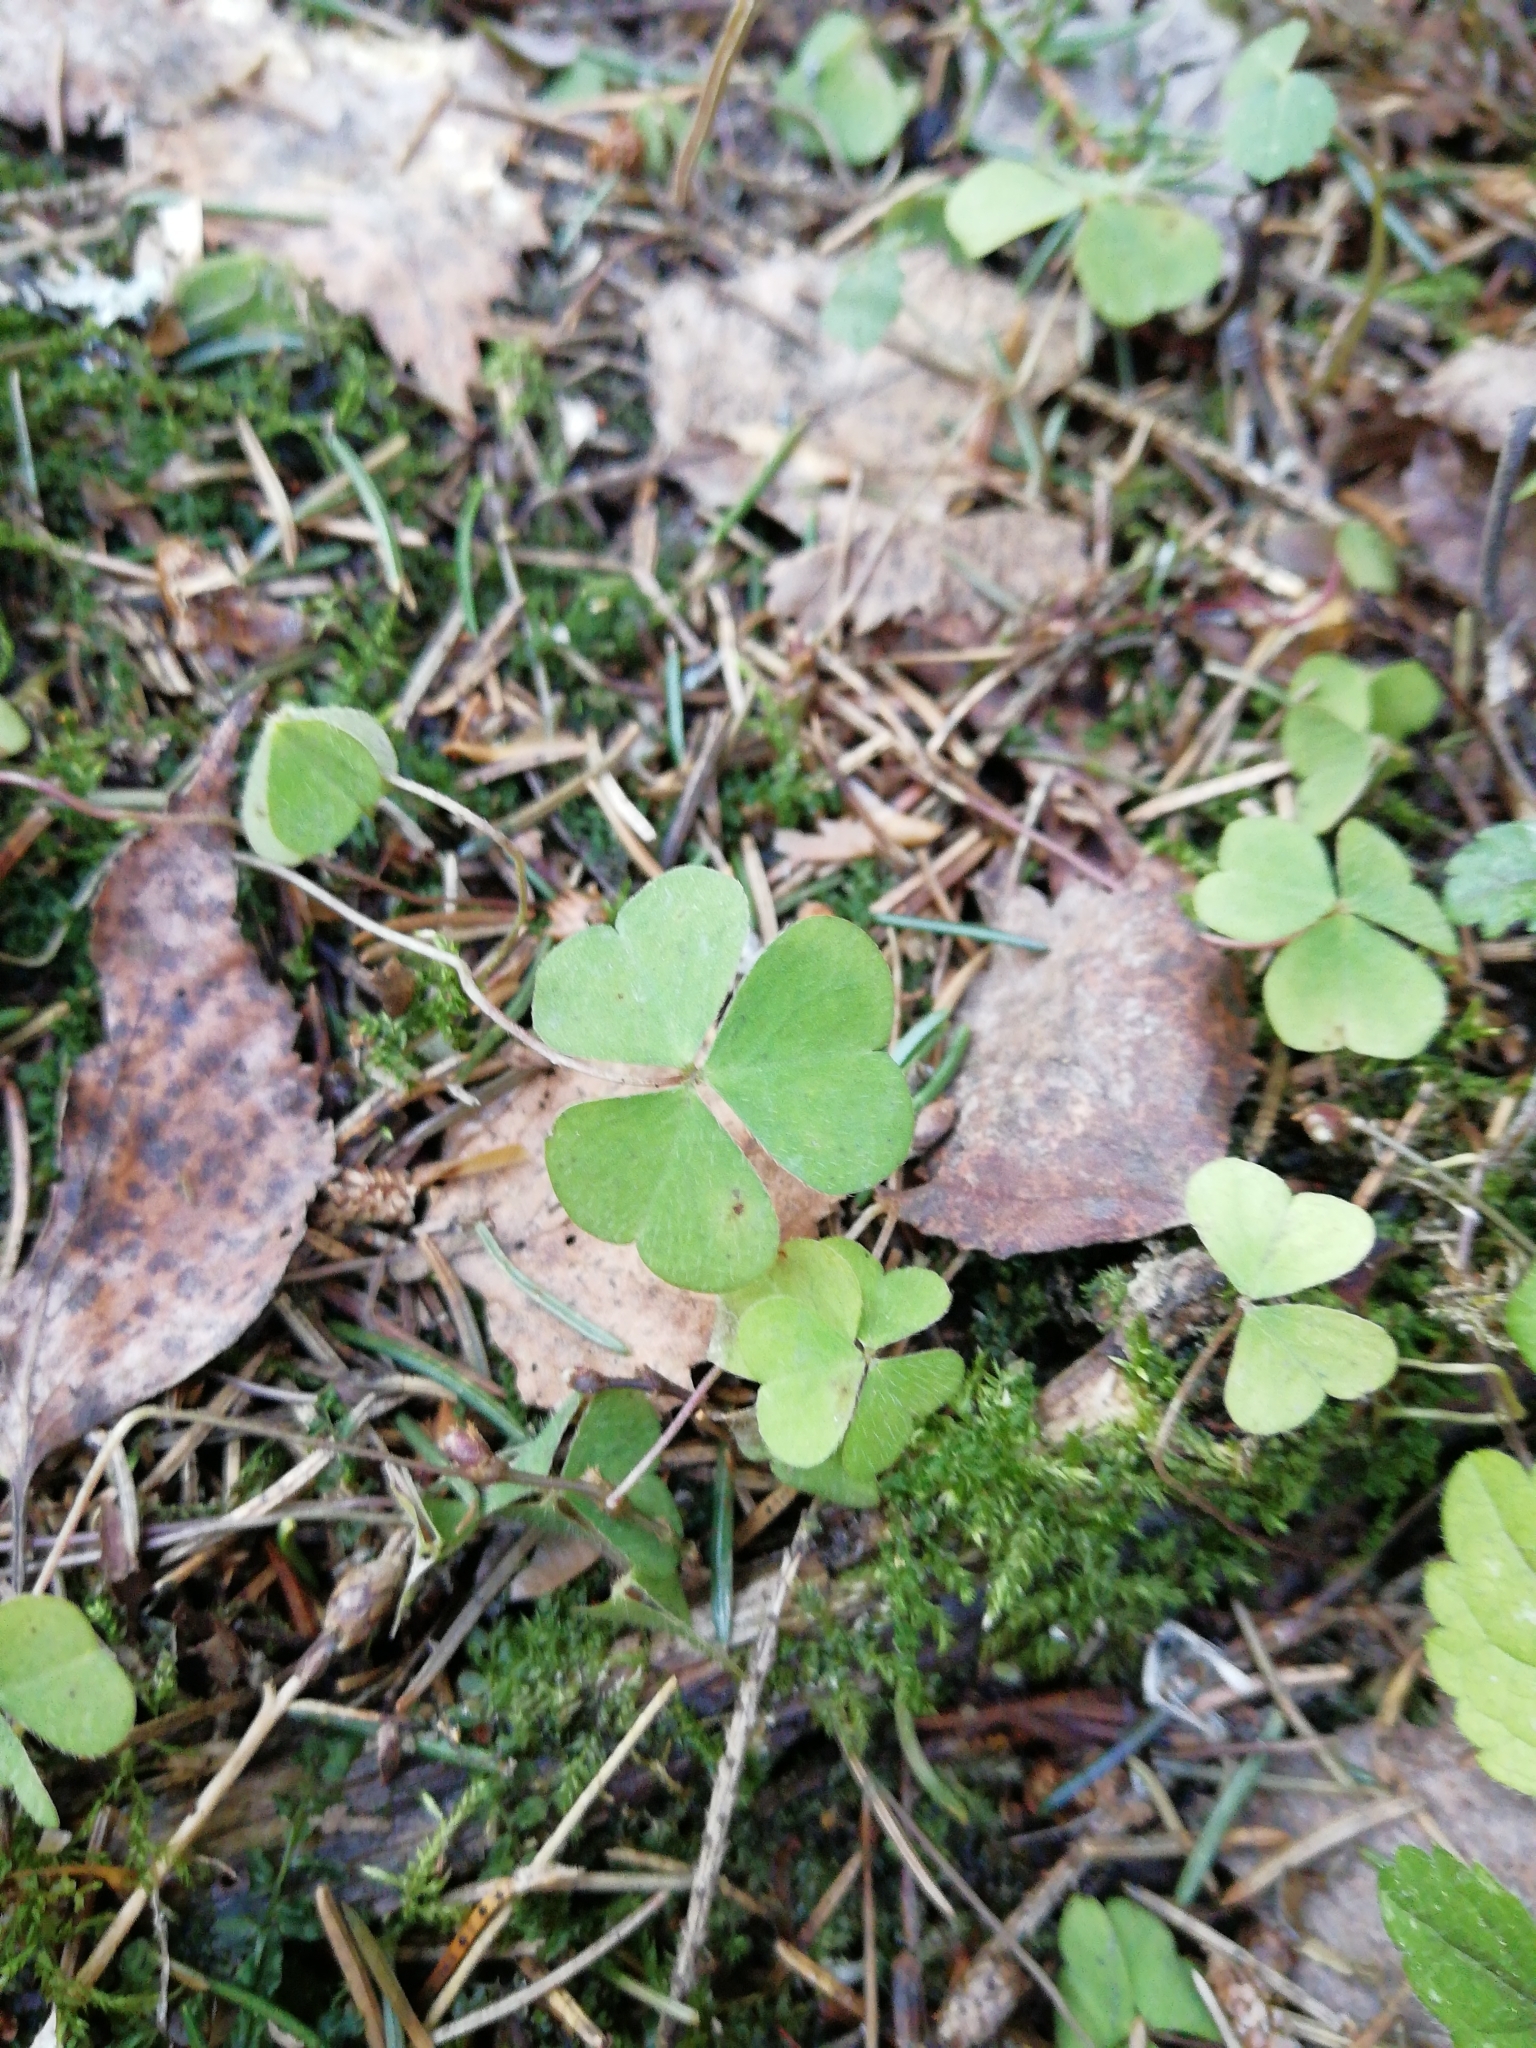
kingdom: Plantae
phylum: Tracheophyta
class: Magnoliopsida
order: Oxalidales
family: Oxalidaceae
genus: Oxalis
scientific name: Oxalis acetosella
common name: Wood-sorrel
